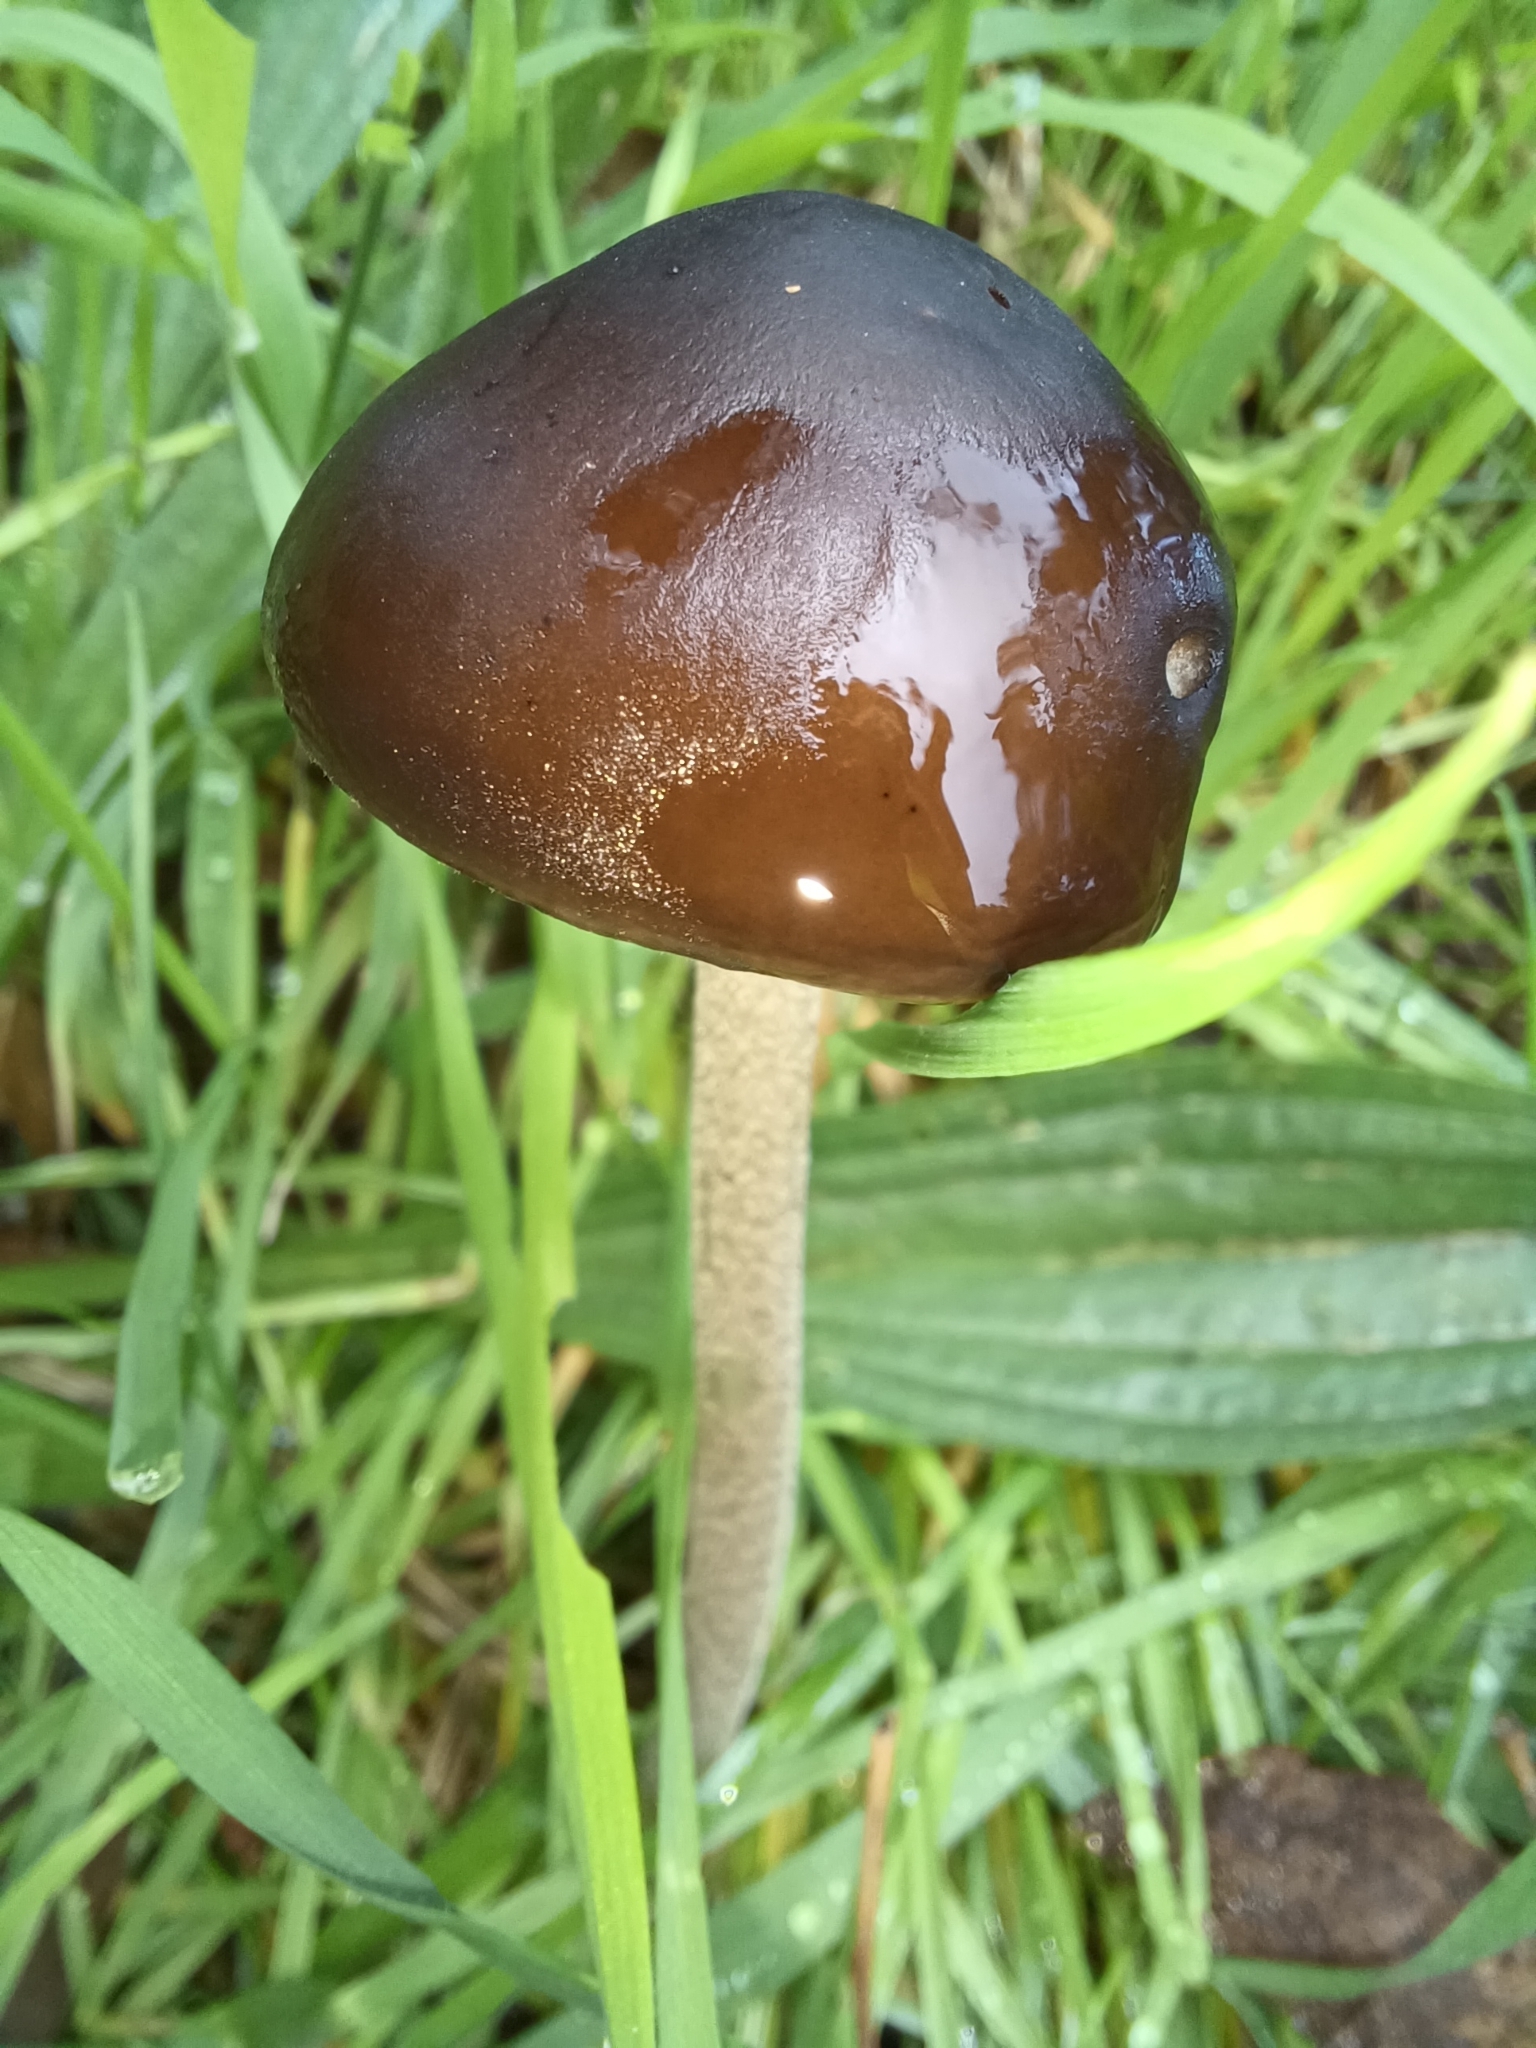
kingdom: Fungi
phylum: Basidiomycota
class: Agaricomycetes
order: Agaricales
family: Physalacriaceae
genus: Hymenopellis
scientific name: Hymenopellis gigaspora
